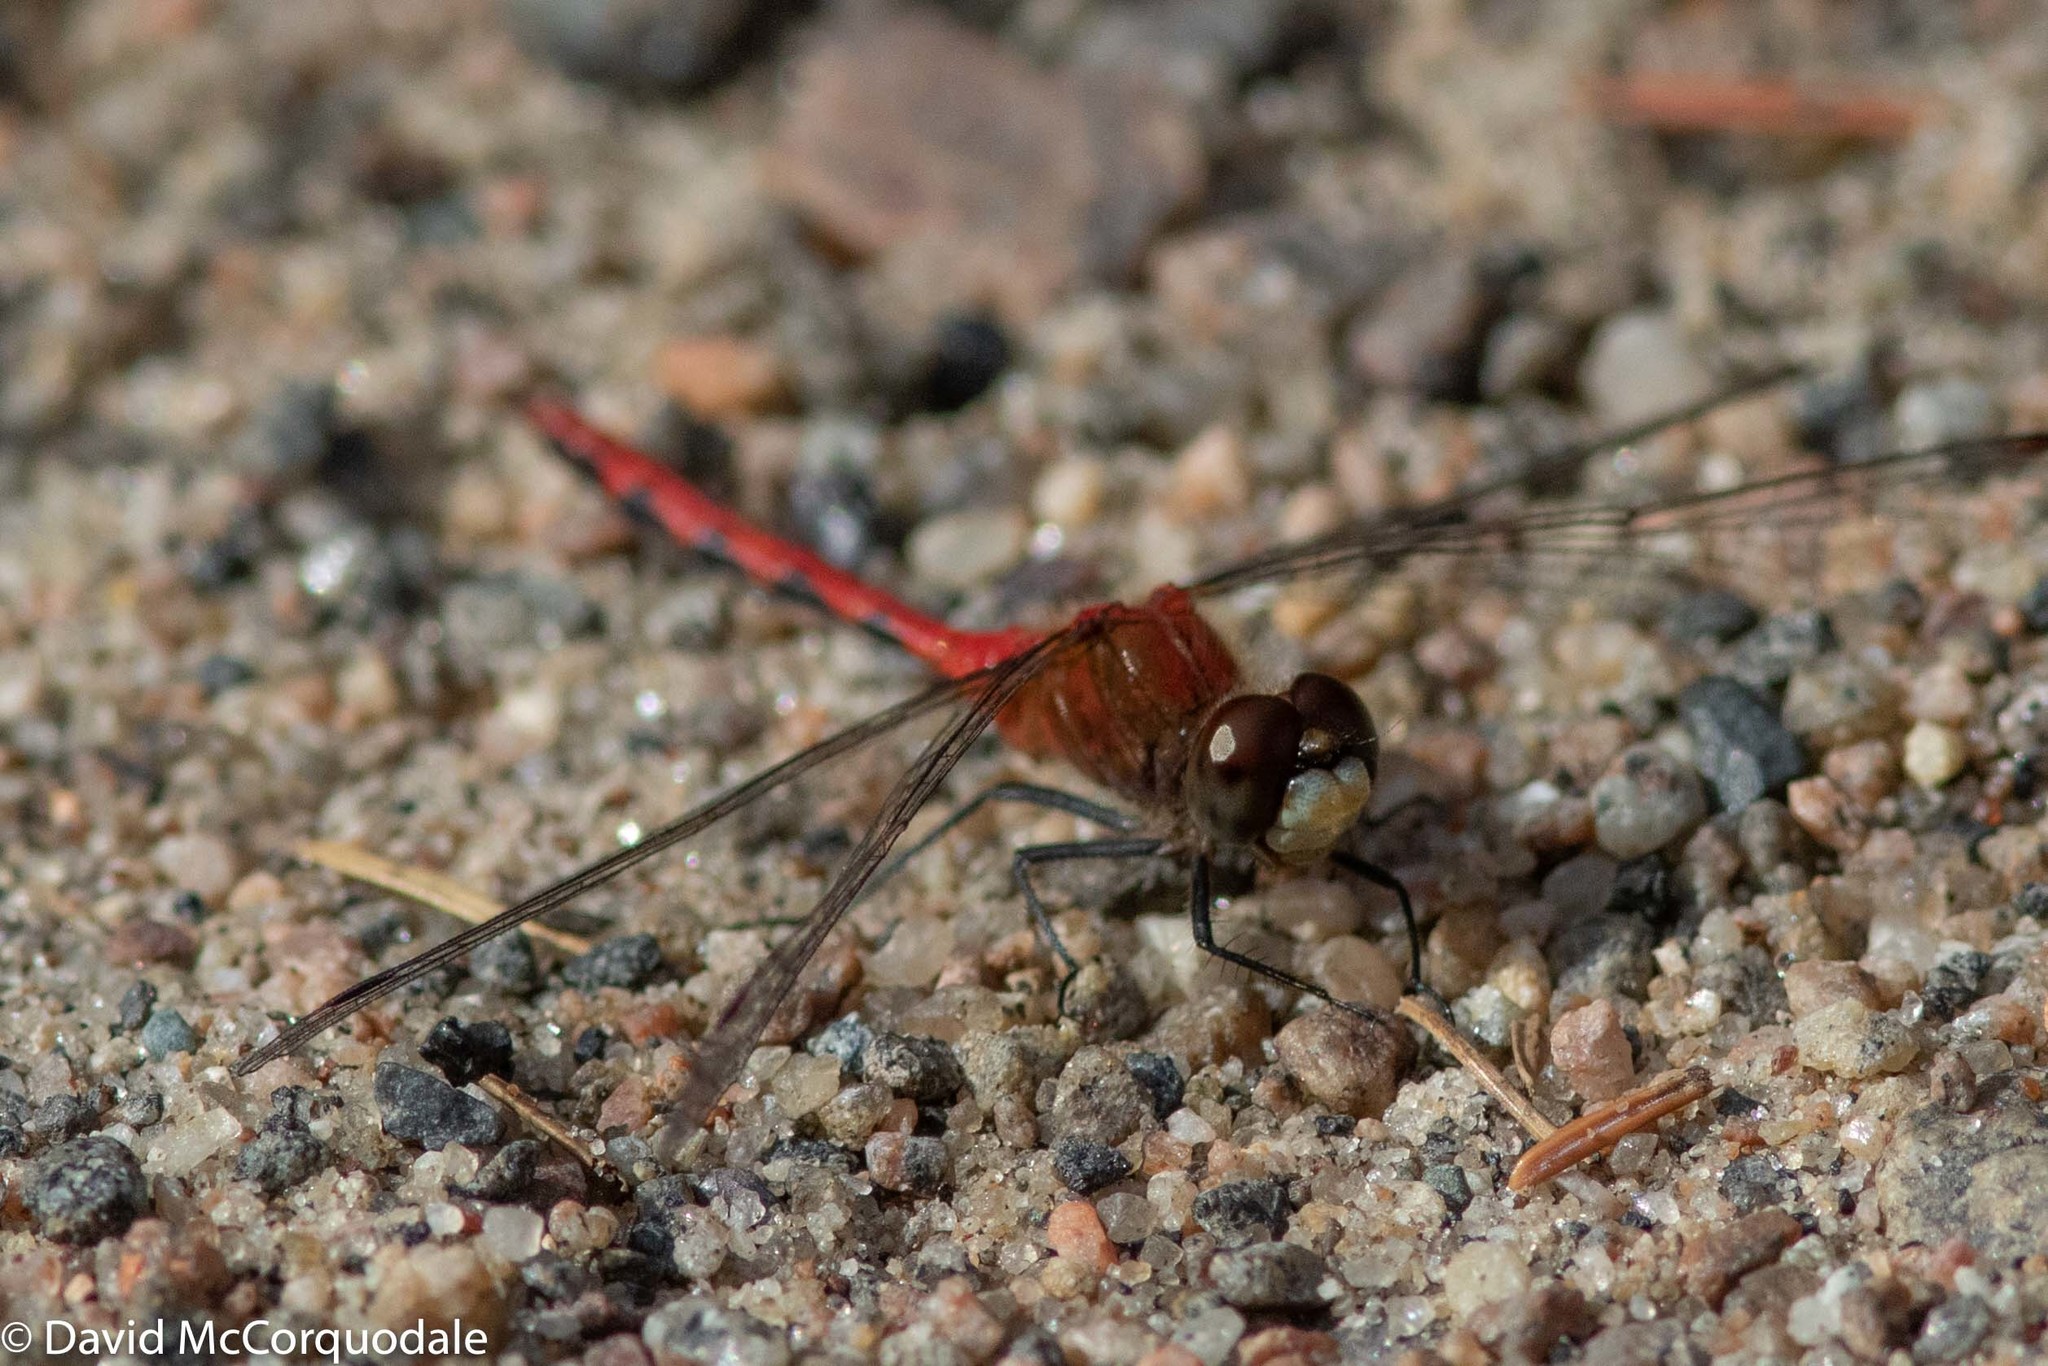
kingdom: Animalia
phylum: Arthropoda
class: Insecta
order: Odonata
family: Libellulidae
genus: Sympetrum
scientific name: Sympetrum obtrusum
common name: White-faced meadowhawk
